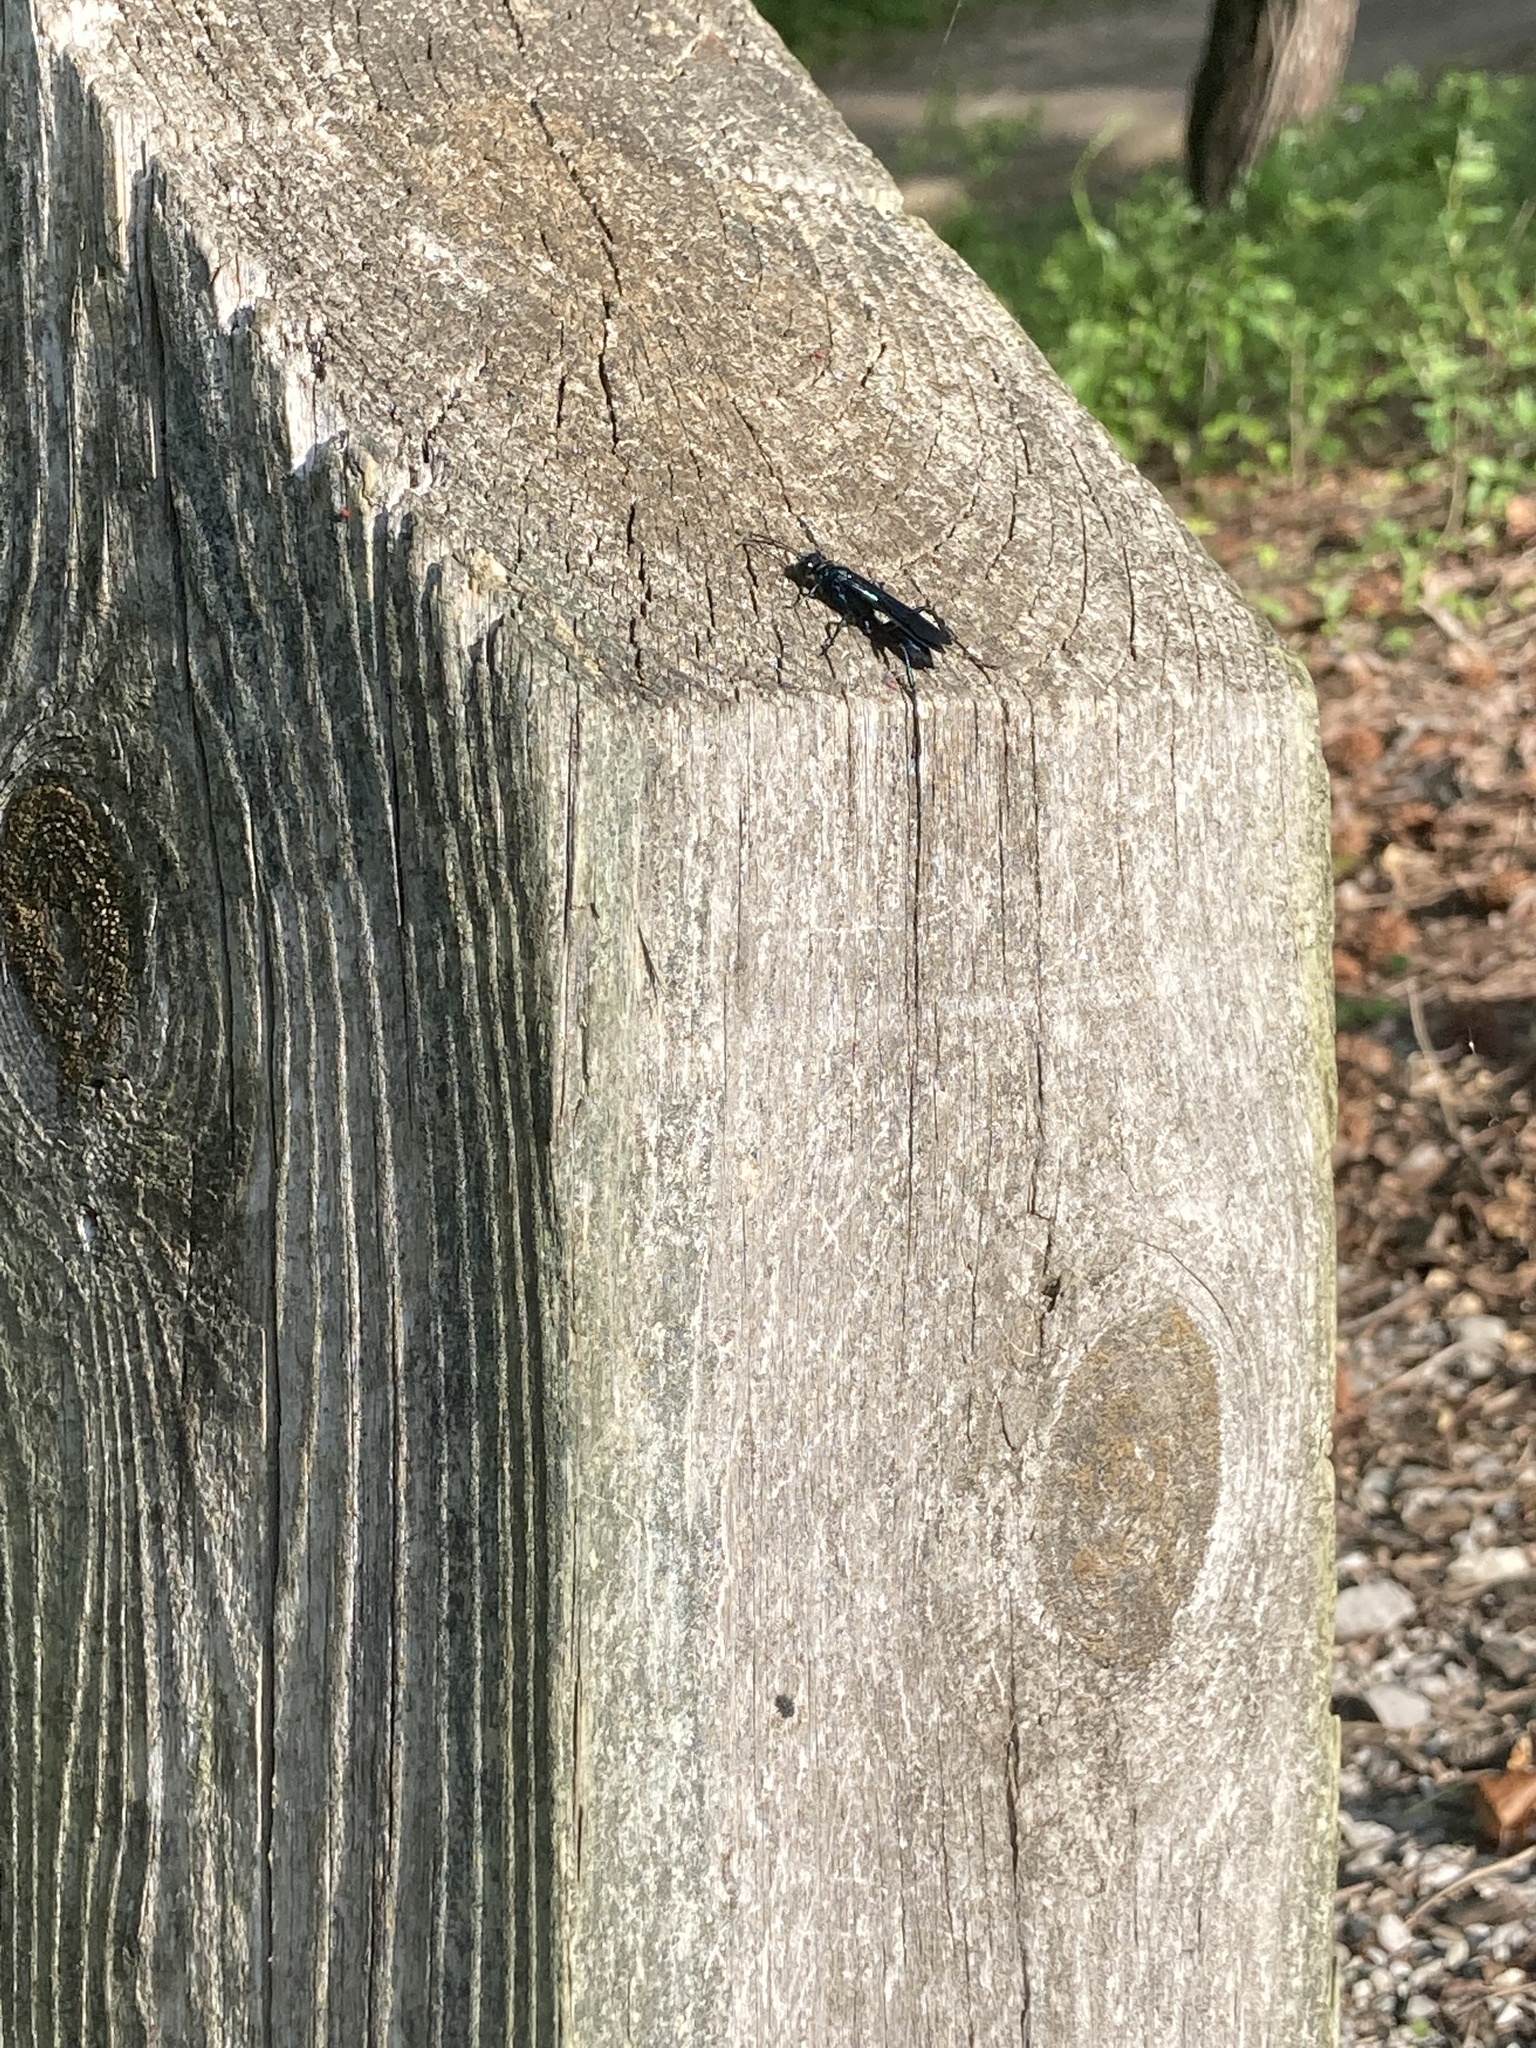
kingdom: Animalia
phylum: Arthropoda
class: Insecta
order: Hymenoptera
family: Sphecidae
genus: Chalybion
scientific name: Chalybion californicum
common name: Mud dauber
